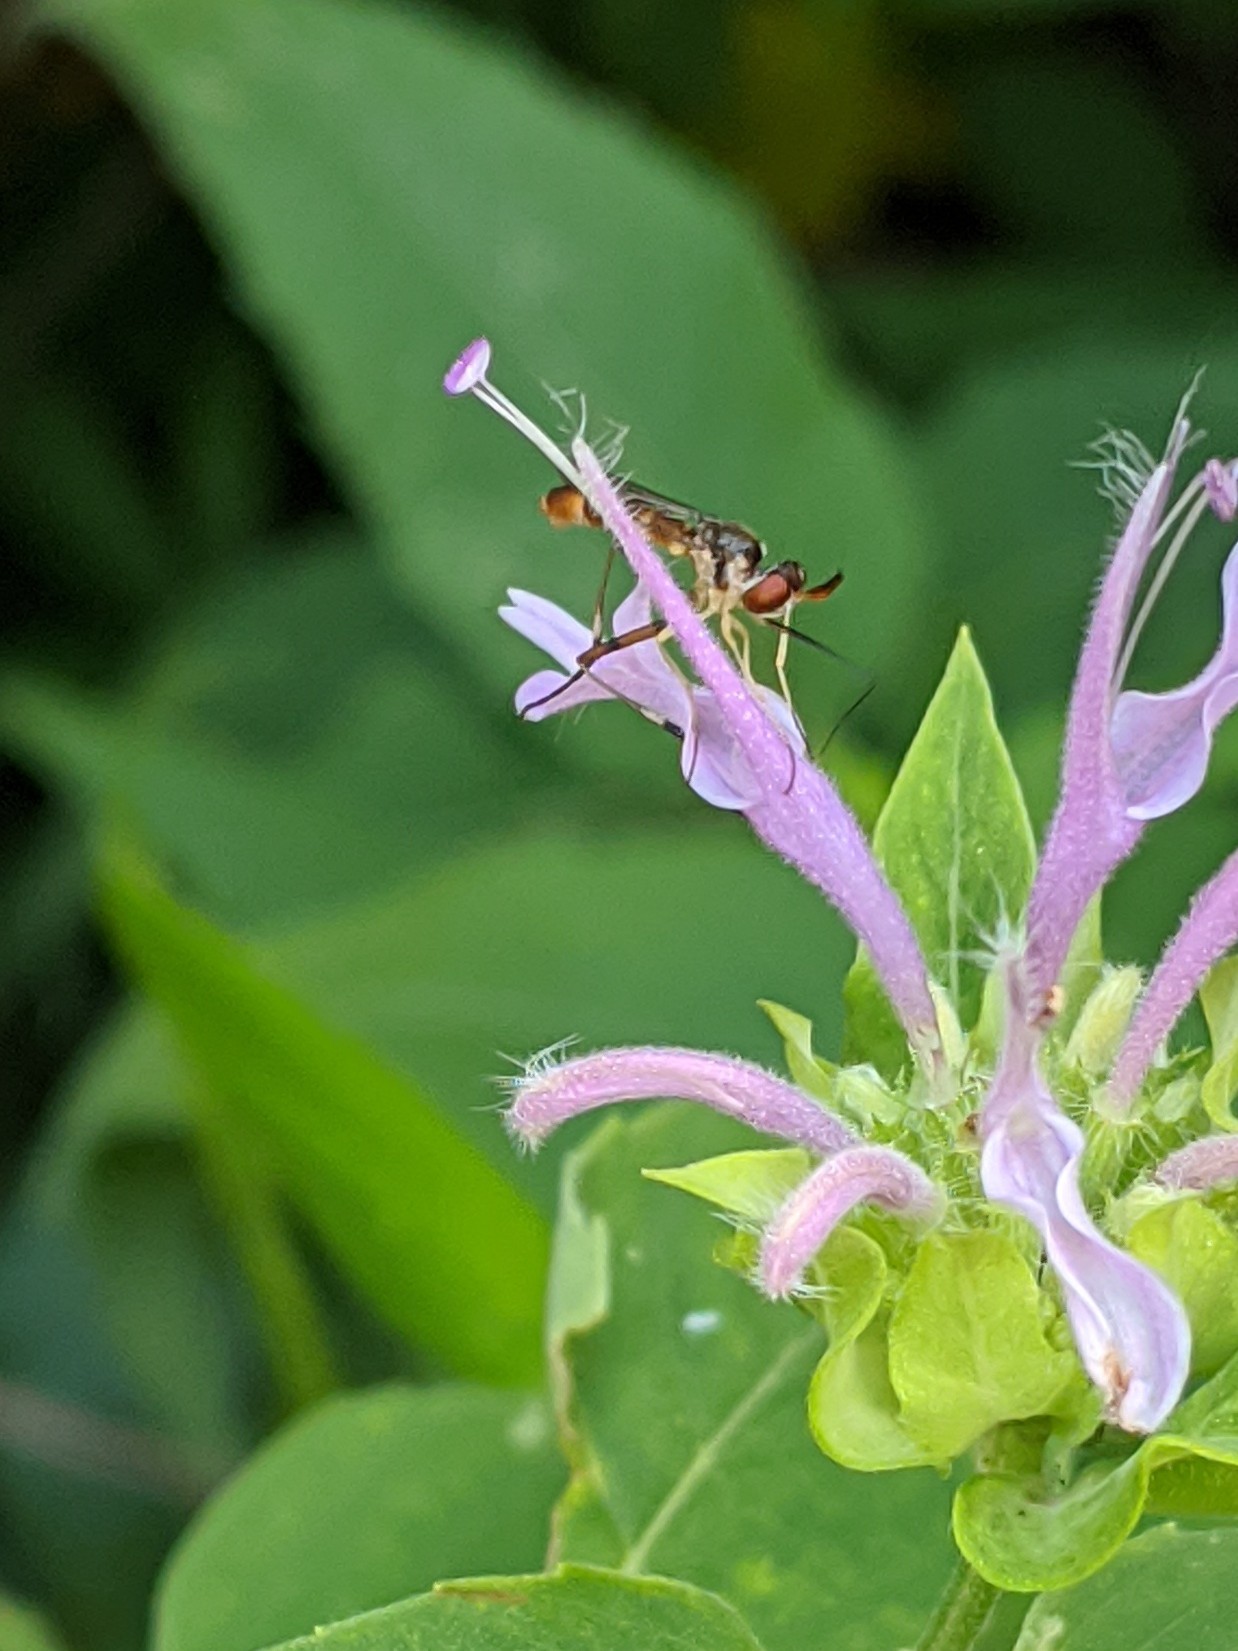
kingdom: Animalia
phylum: Arthropoda
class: Insecta
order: Diptera
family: Conopidae
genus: Stylogaster
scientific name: Stylogaster neglecta
